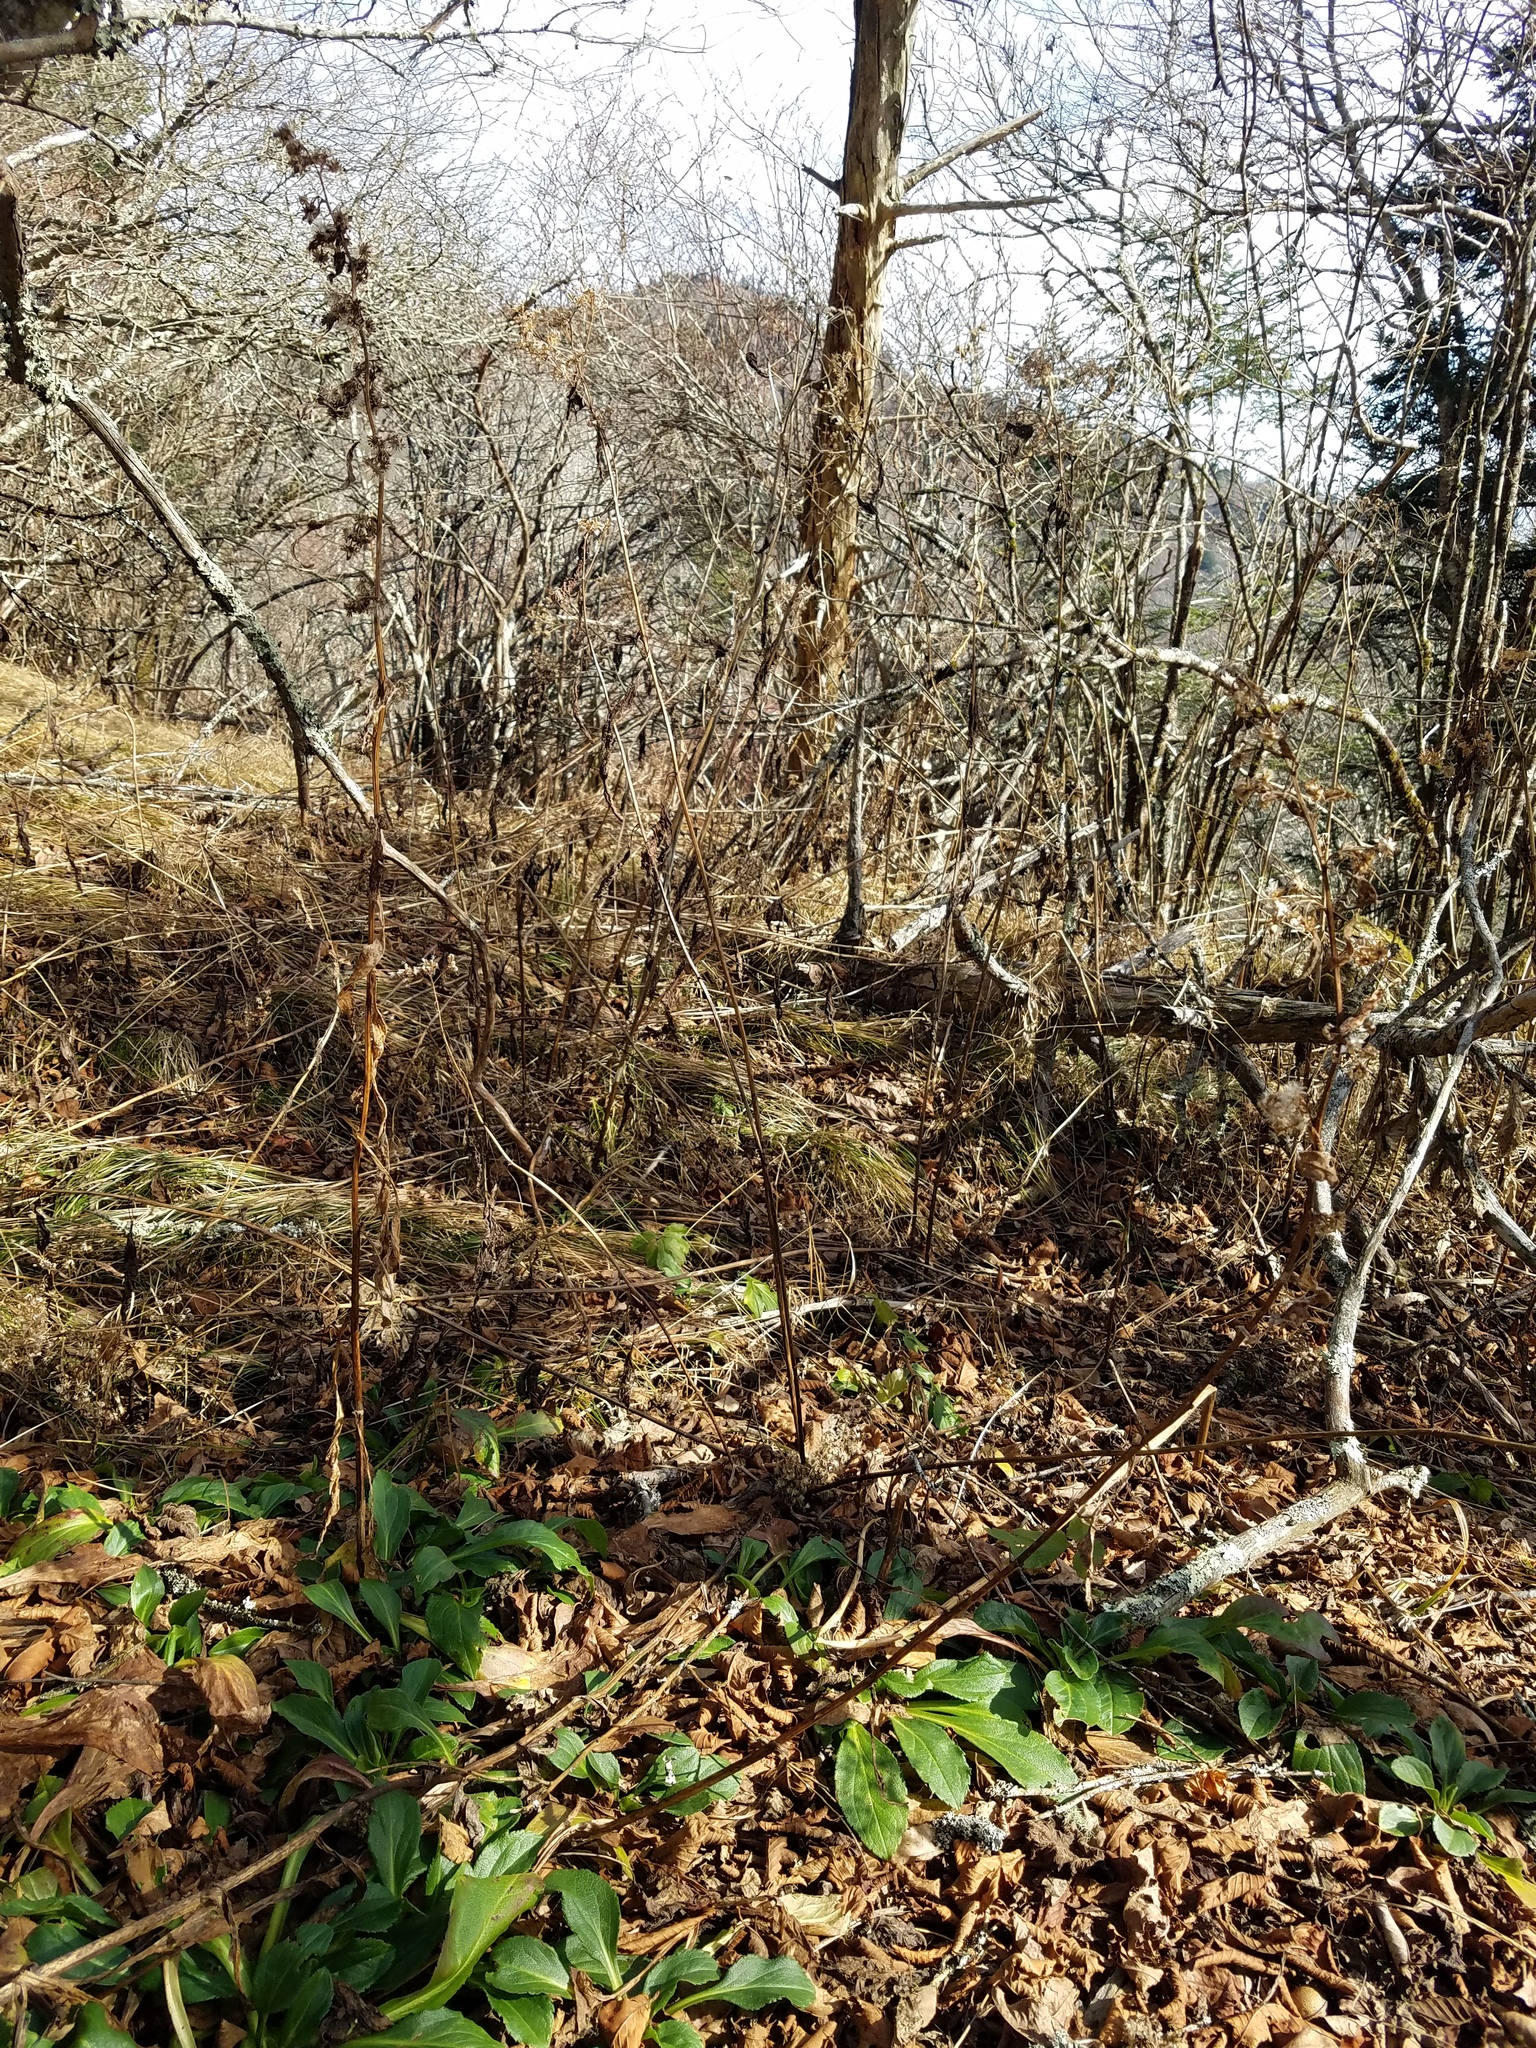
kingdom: Plantae
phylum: Tracheophyta
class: Magnoliopsida
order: Asterales
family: Asteraceae
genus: Solidago
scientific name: Solidago glomerata
